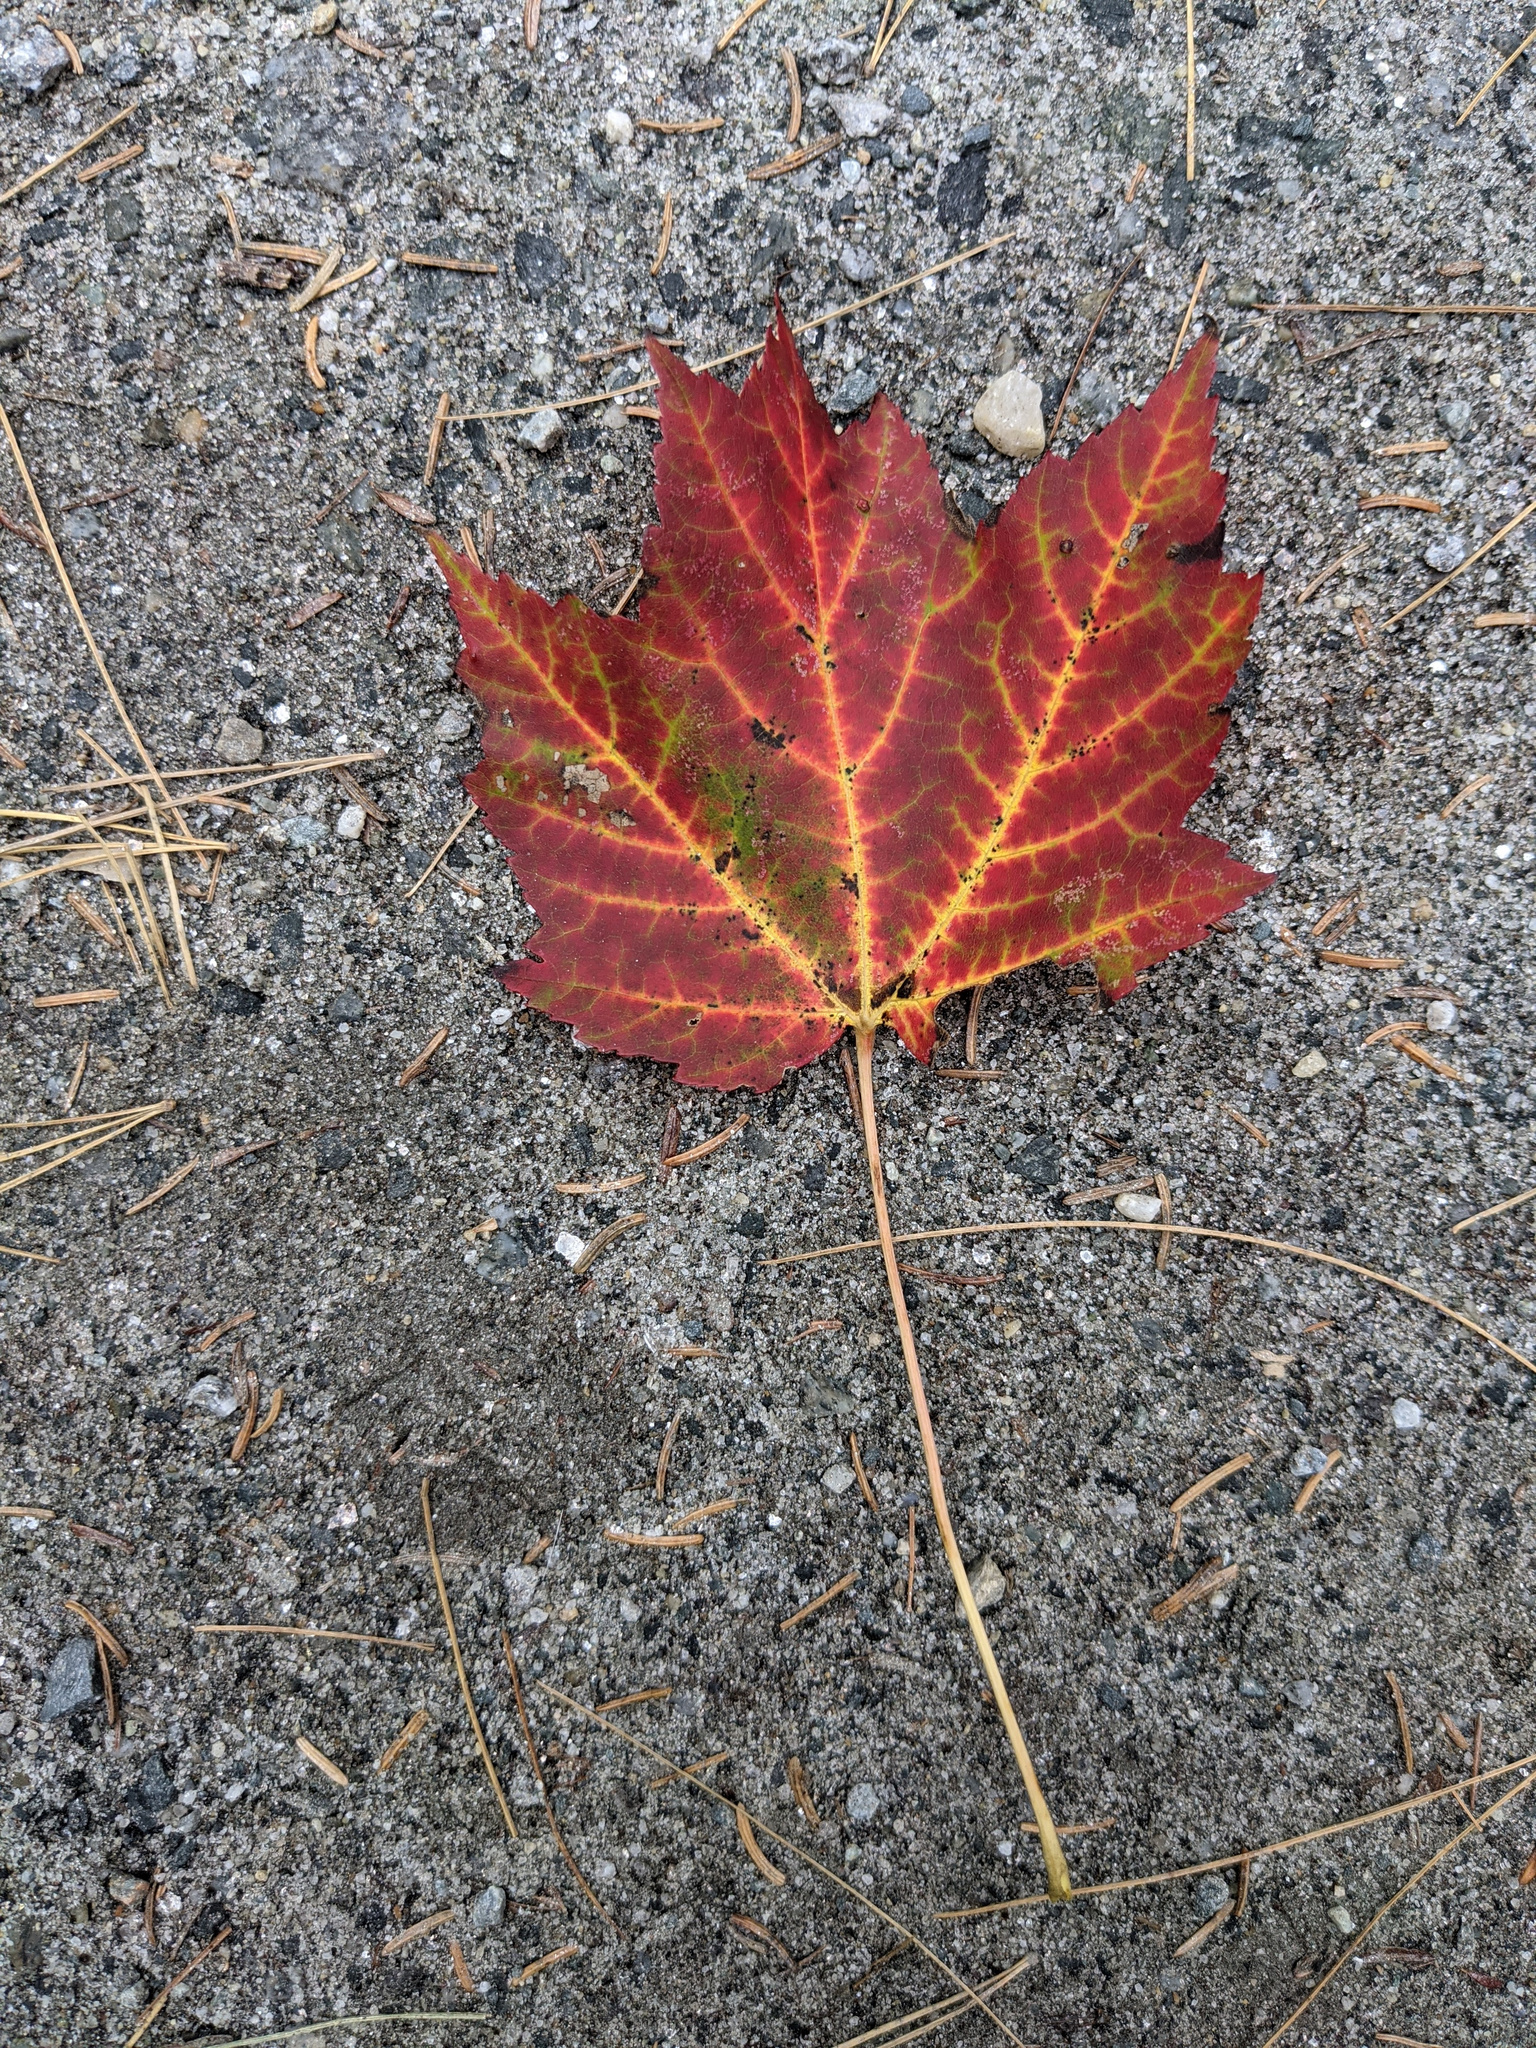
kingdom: Plantae
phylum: Tracheophyta
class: Magnoliopsida
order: Sapindales
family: Sapindaceae
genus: Acer
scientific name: Acer rubrum
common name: Red maple
